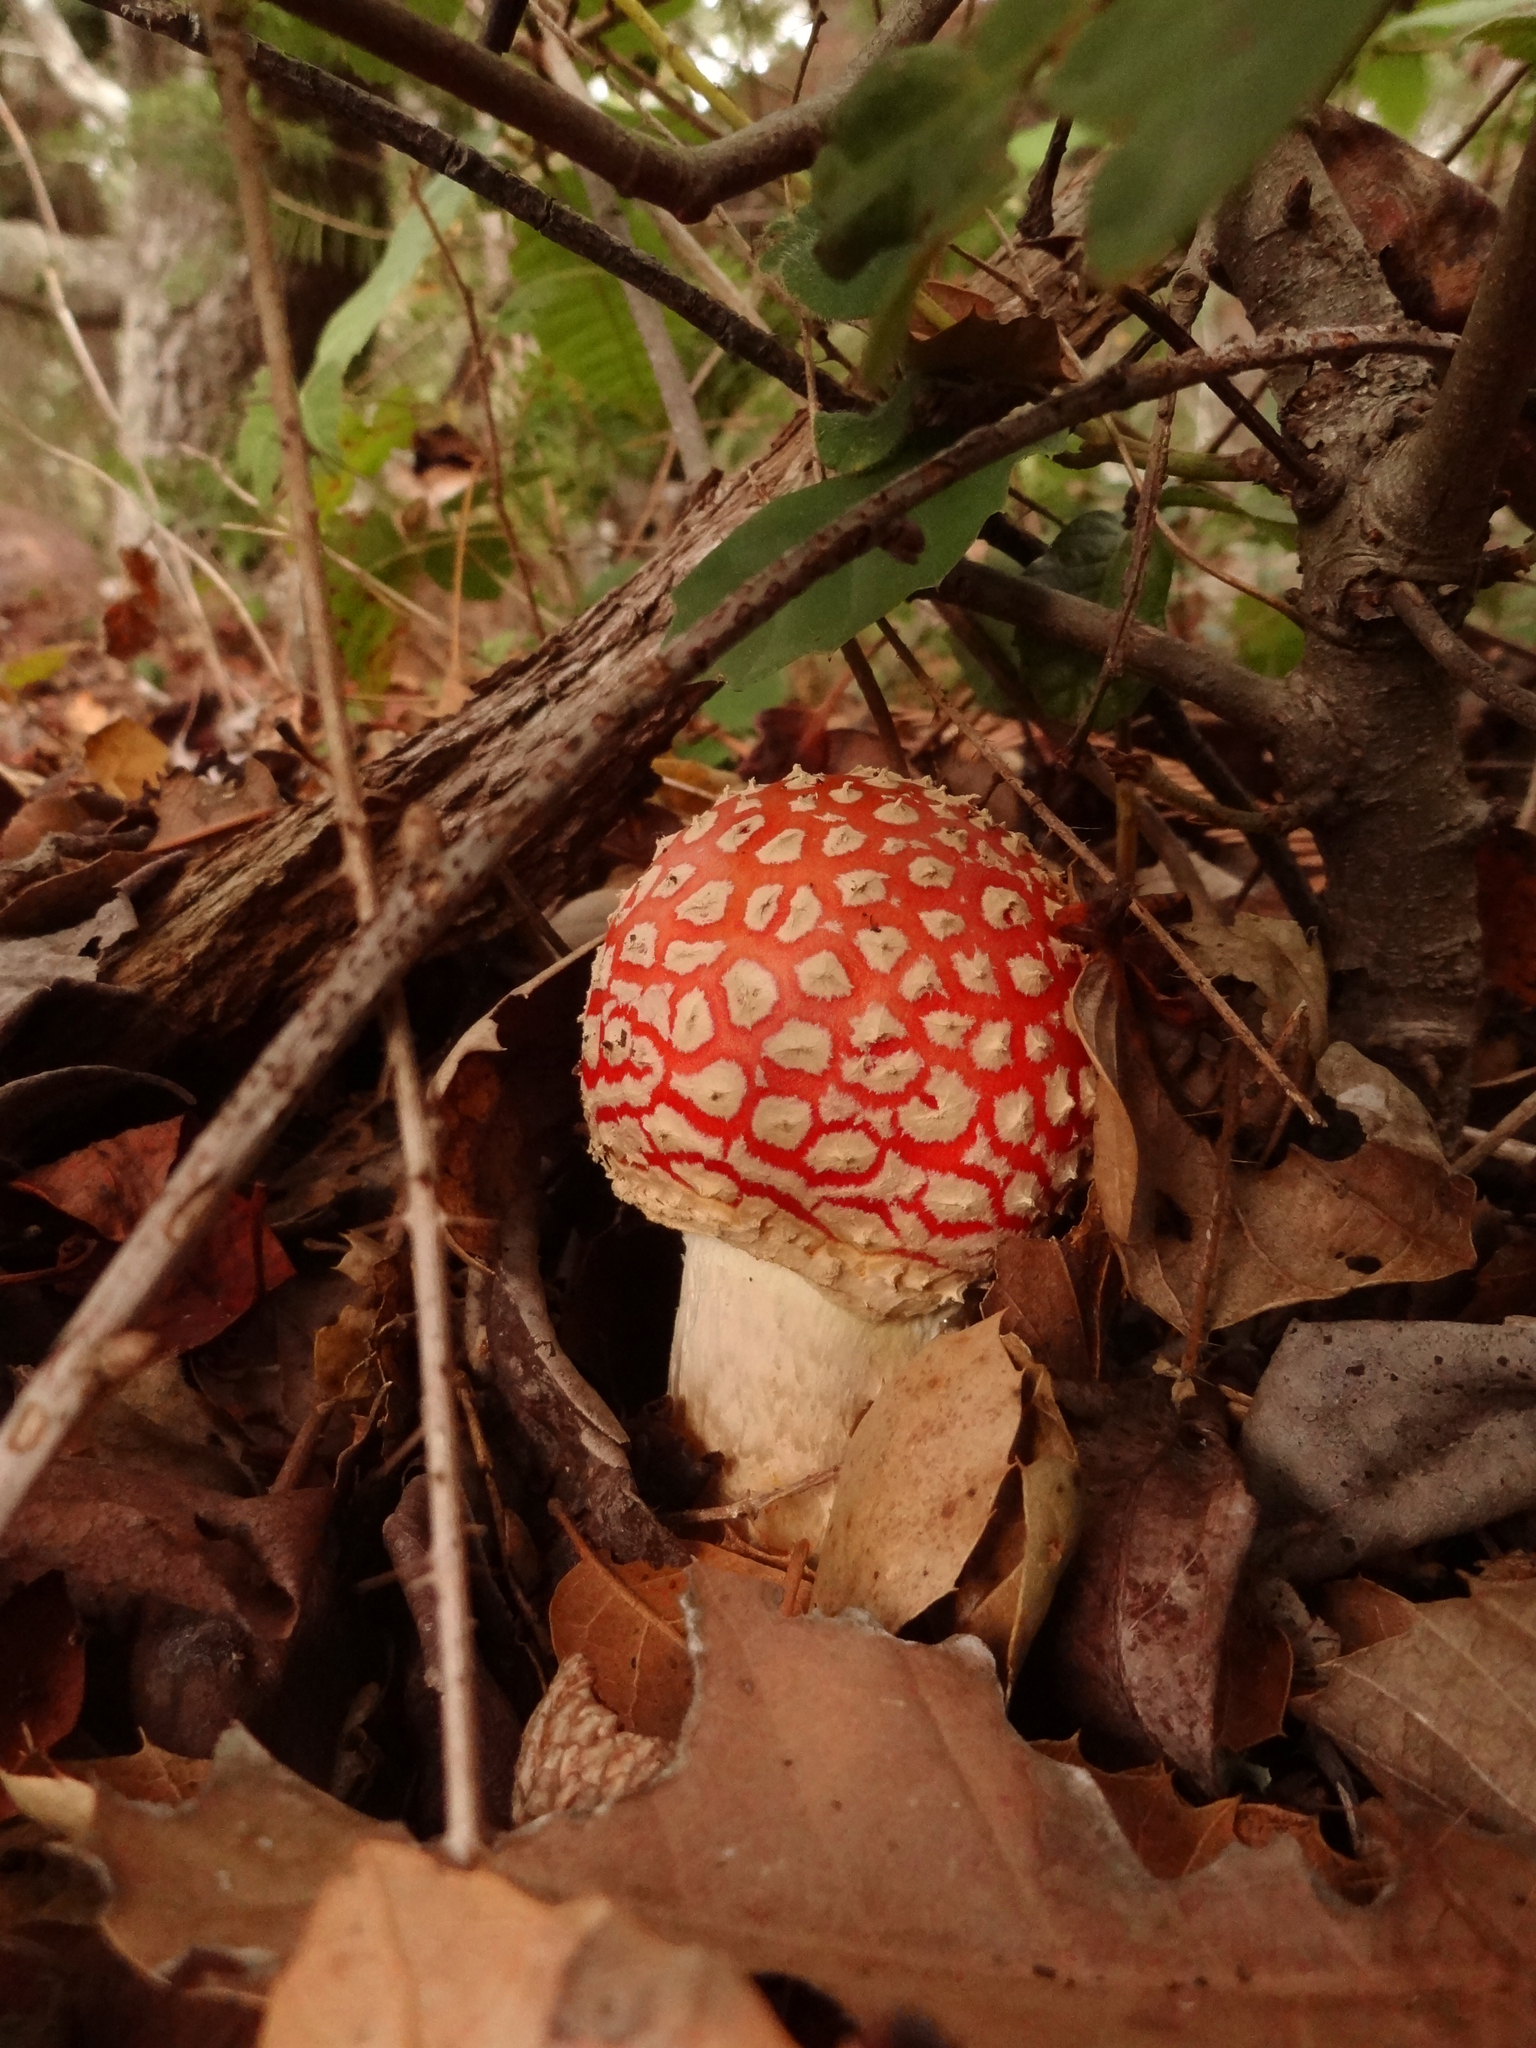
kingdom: Fungi
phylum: Basidiomycota
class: Agaricomycetes
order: Agaricales
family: Amanitaceae
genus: Amanita
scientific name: Amanita muscaria
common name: Fly agaric
